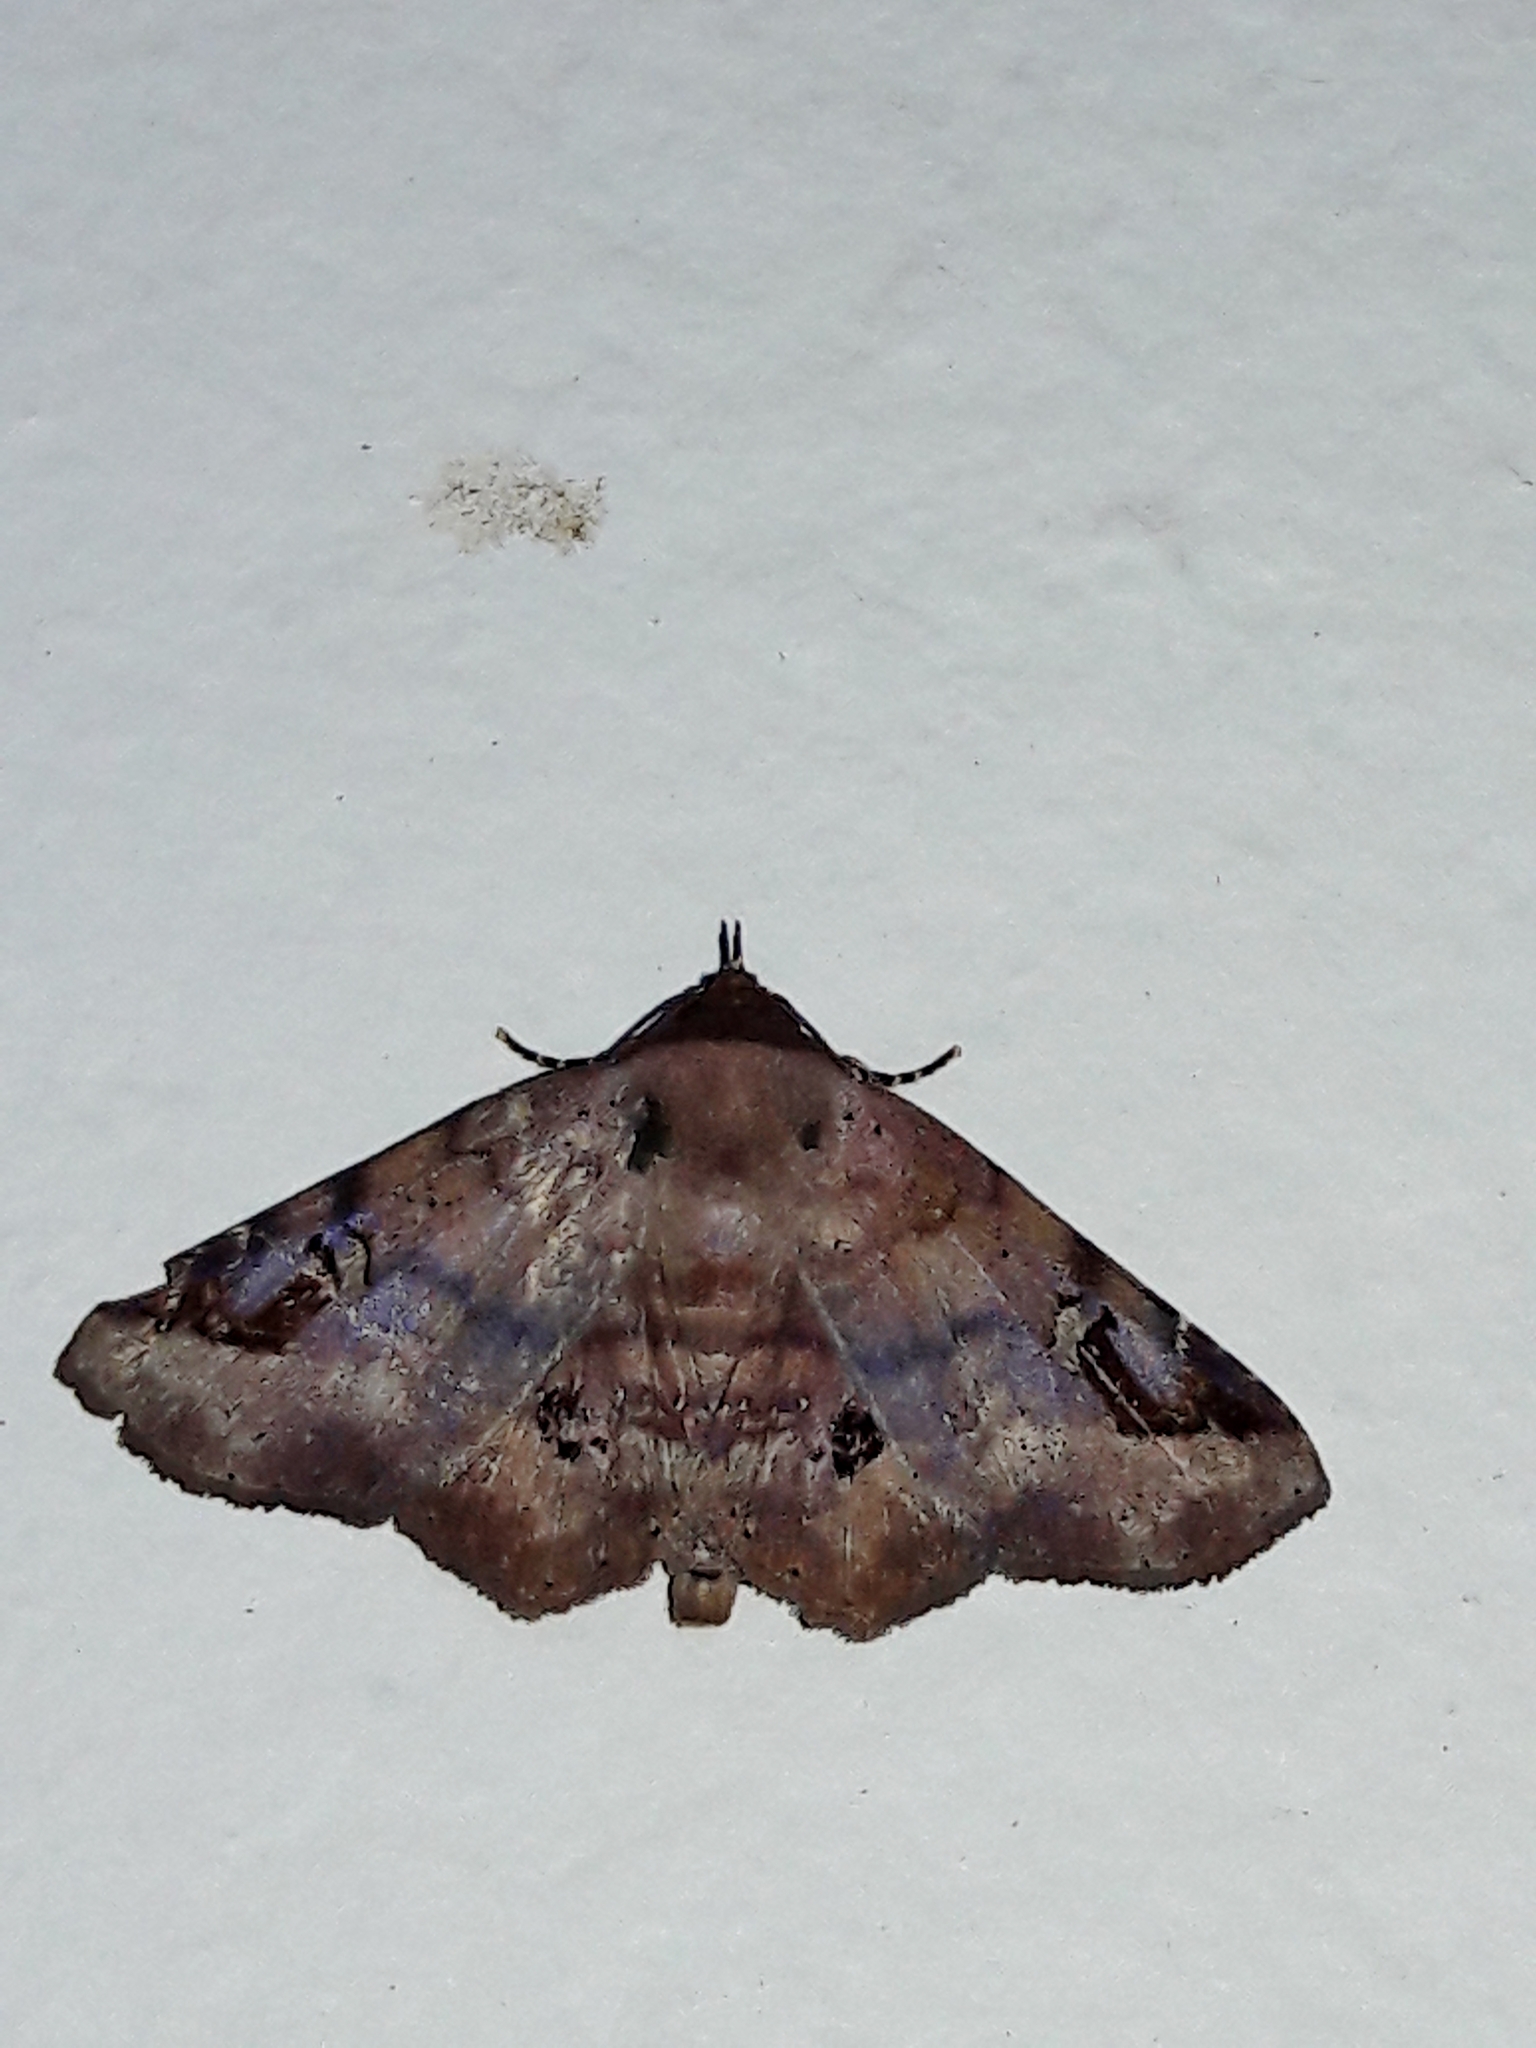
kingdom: Animalia
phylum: Arthropoda
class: Insecta
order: Lepidoptera
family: Erebidae
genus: Massala
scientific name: Massala abdara
